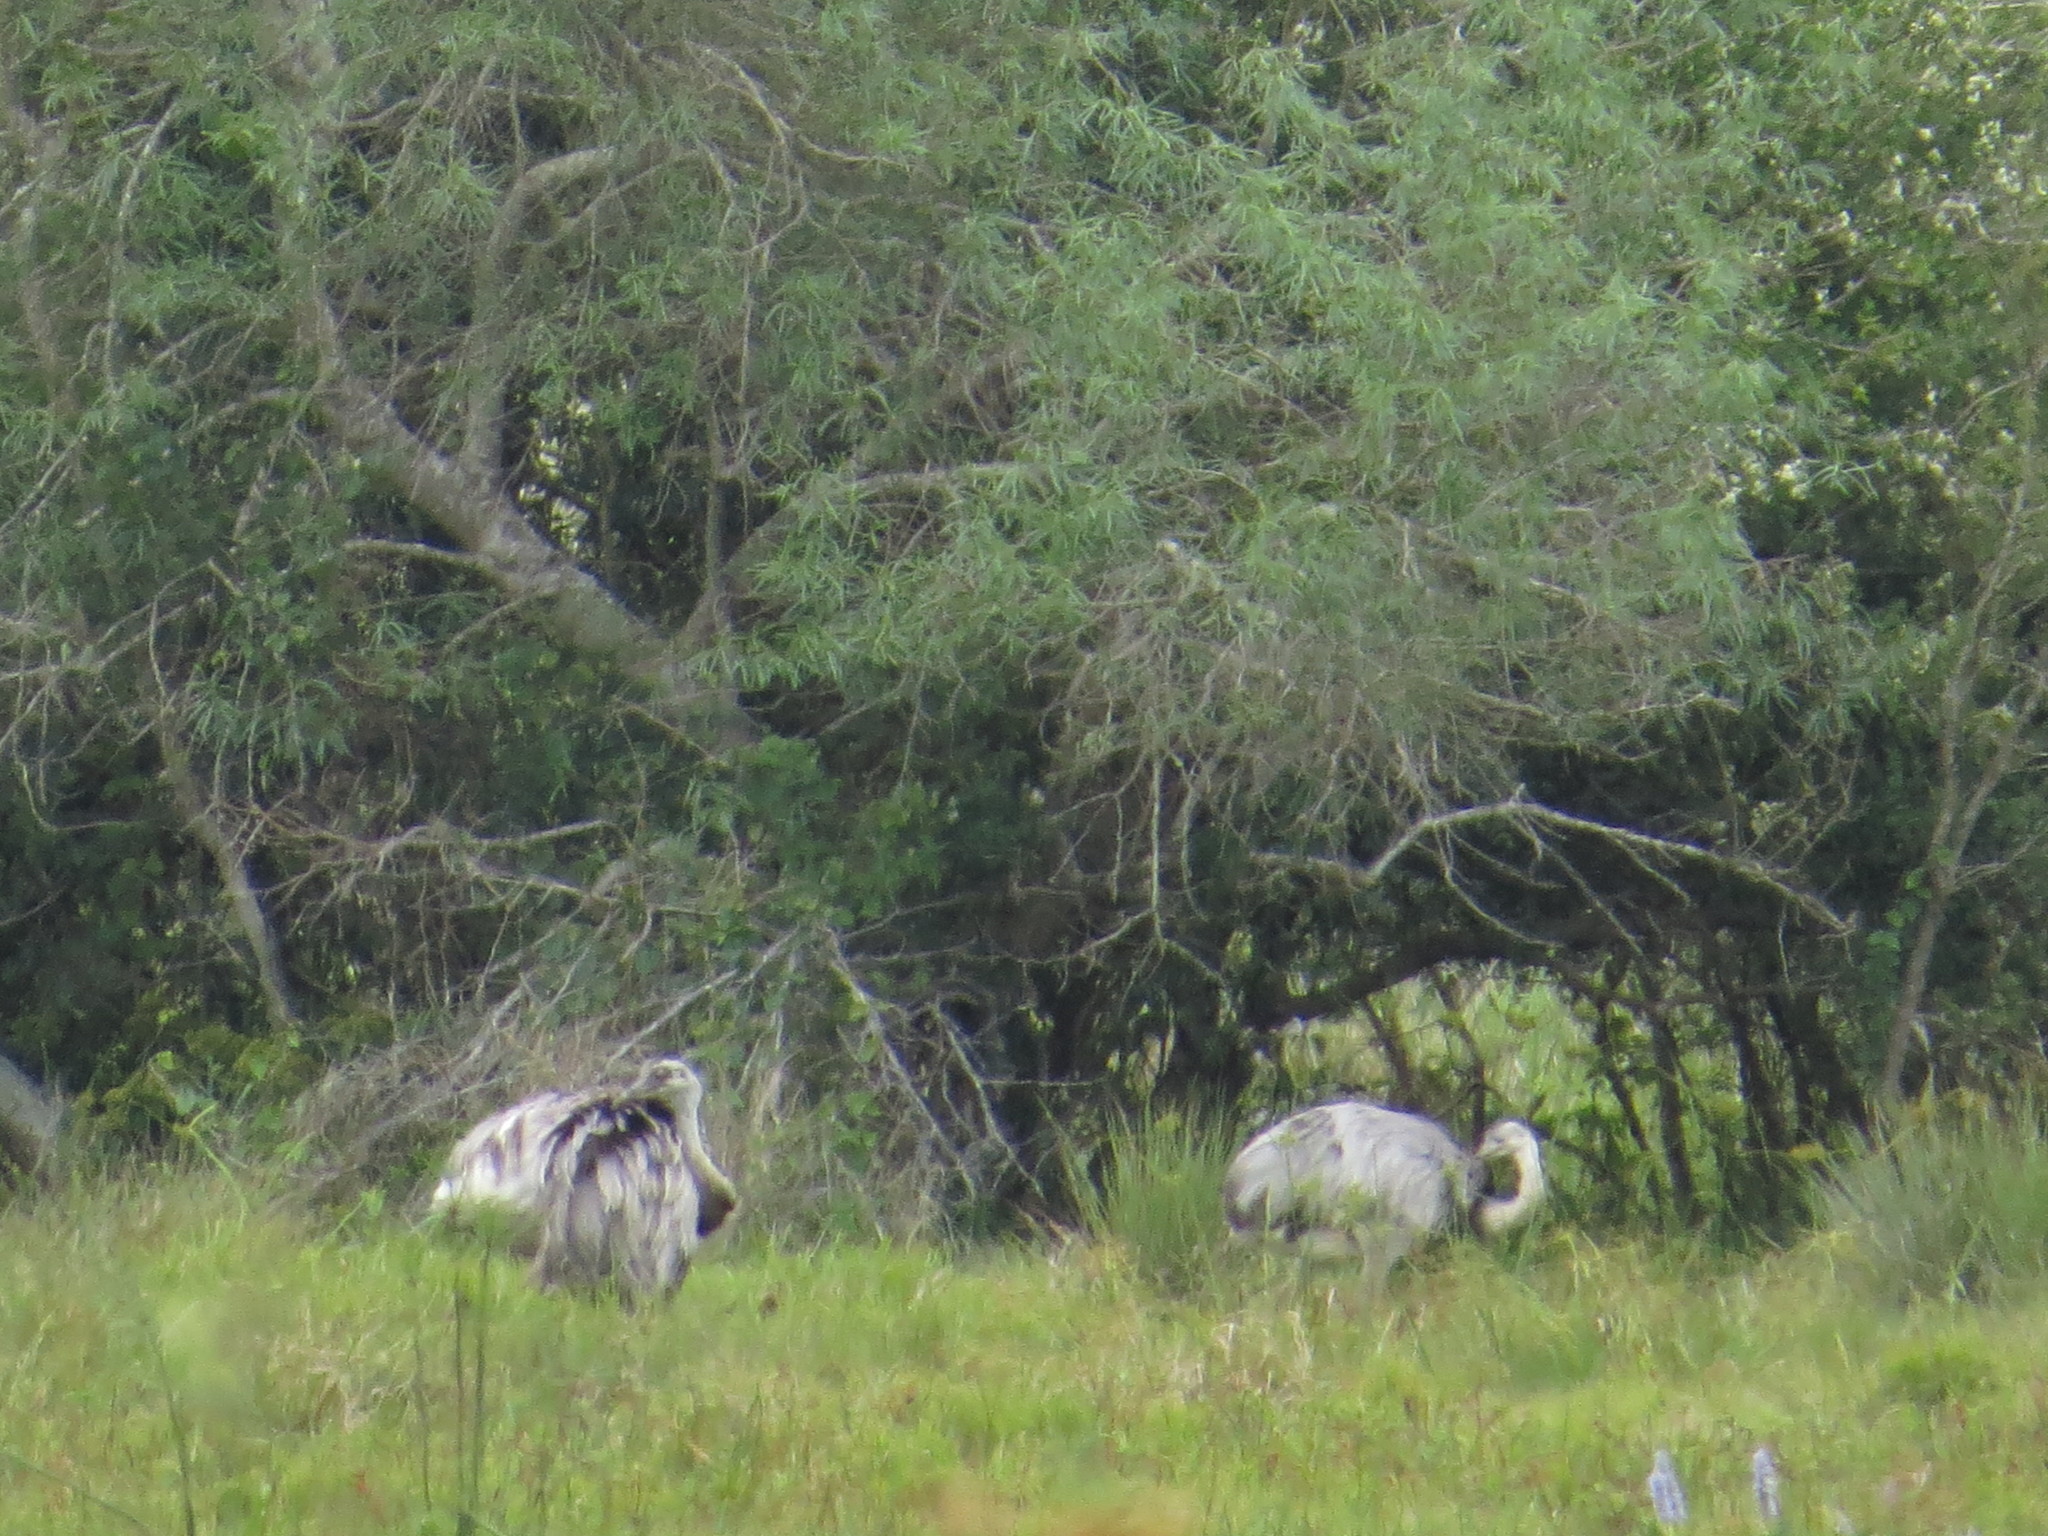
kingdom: Animalia
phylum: Chordata
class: Aves
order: Rheiformes
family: Rheidae
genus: Rhea
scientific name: Rhea americana
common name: Greater rhea
